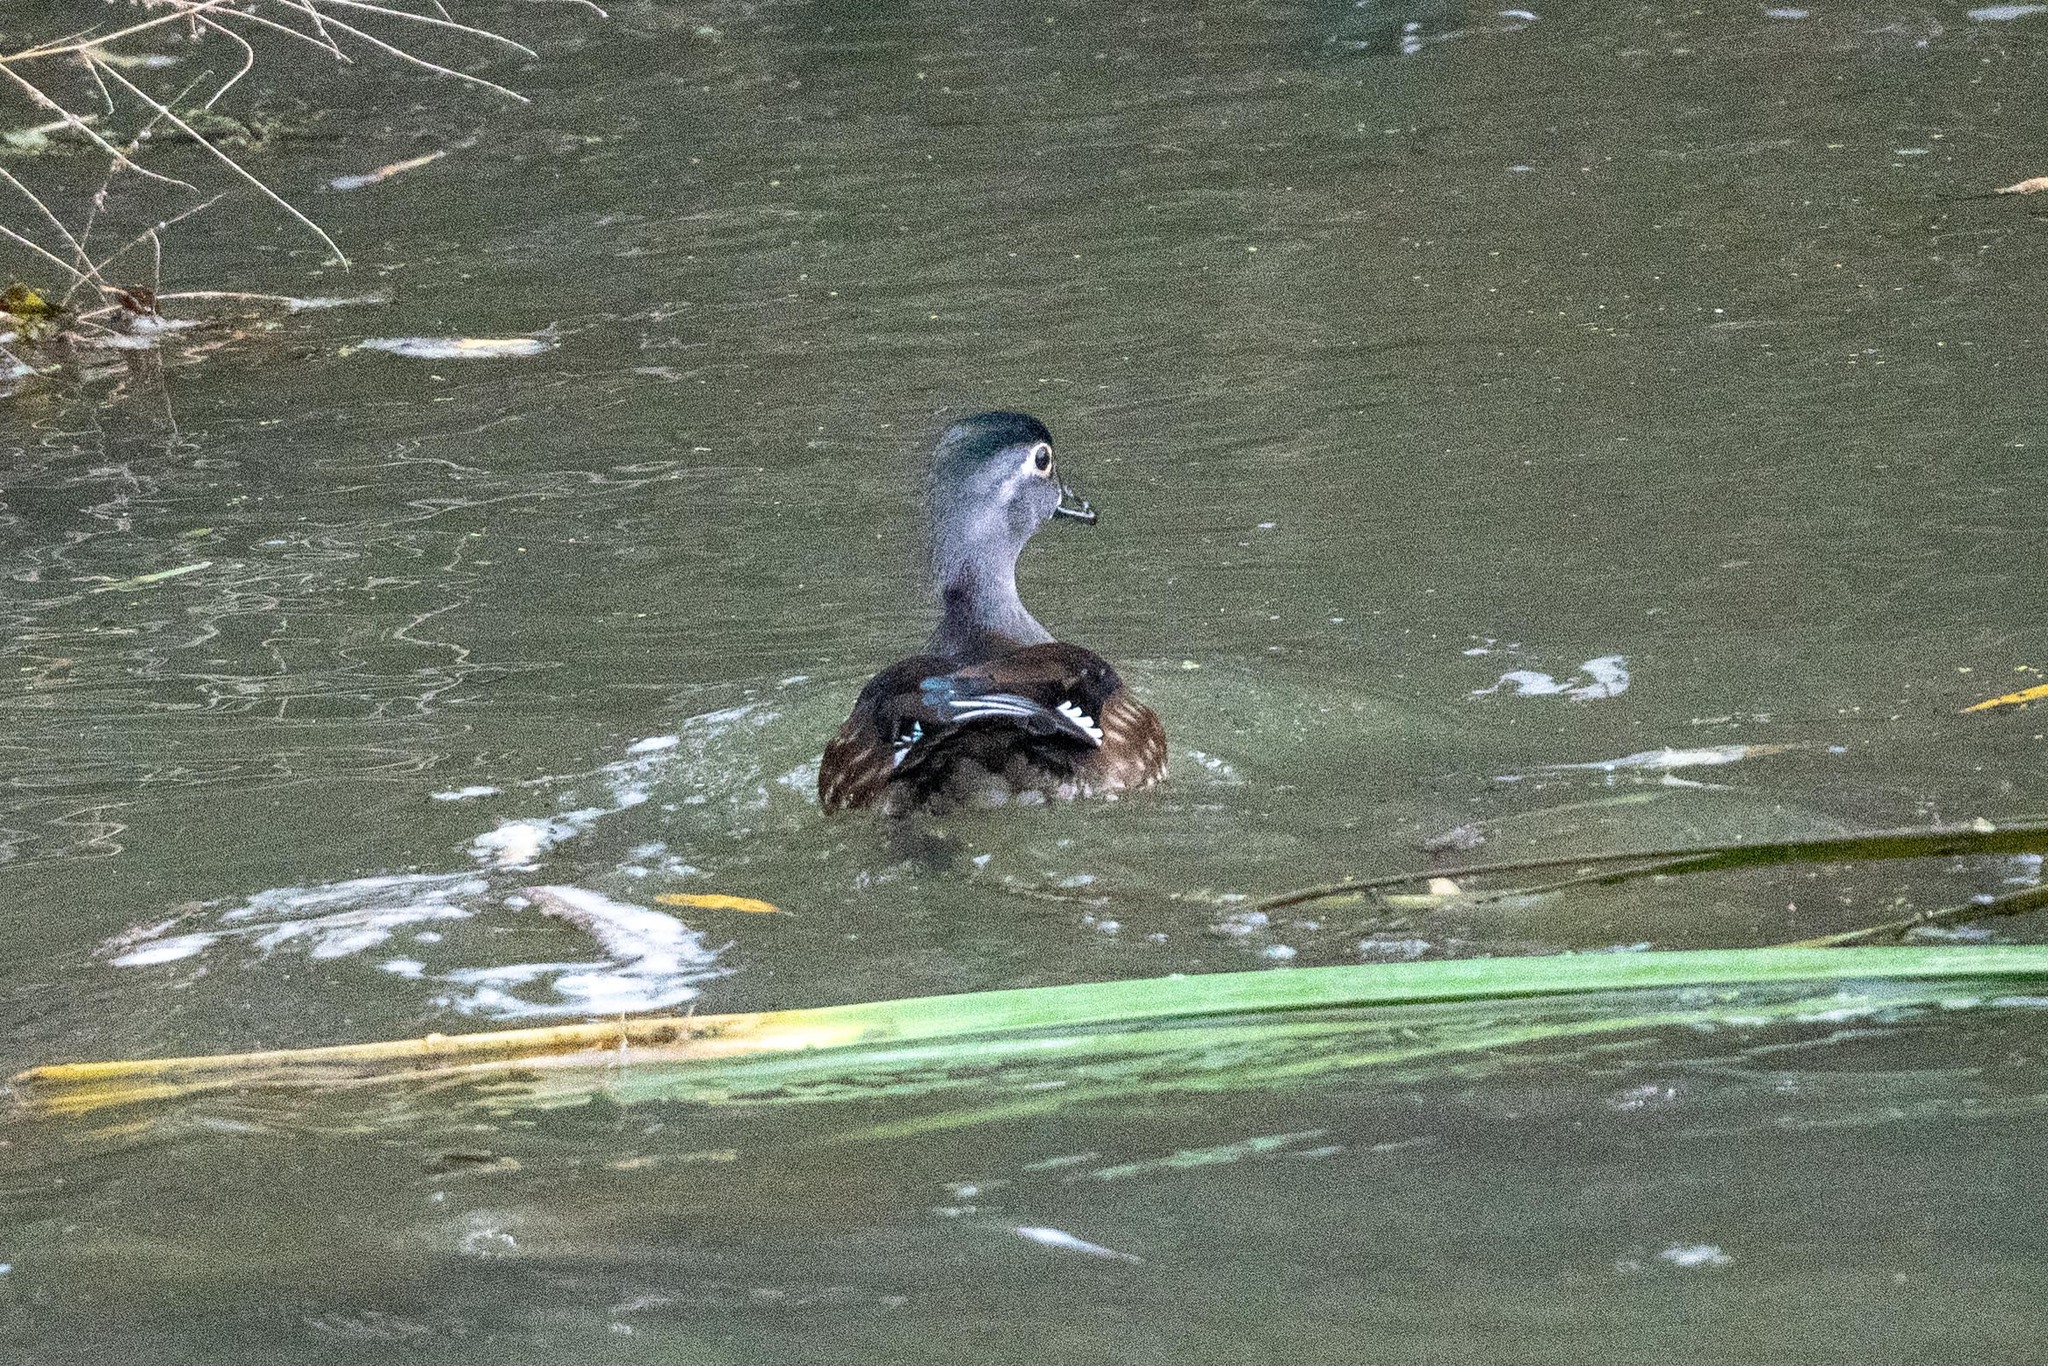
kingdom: Animalia
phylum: Chordata
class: Aves
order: Anseriformes
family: Anatidae
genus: Aix
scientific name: Aix sponsa
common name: Wood duck
